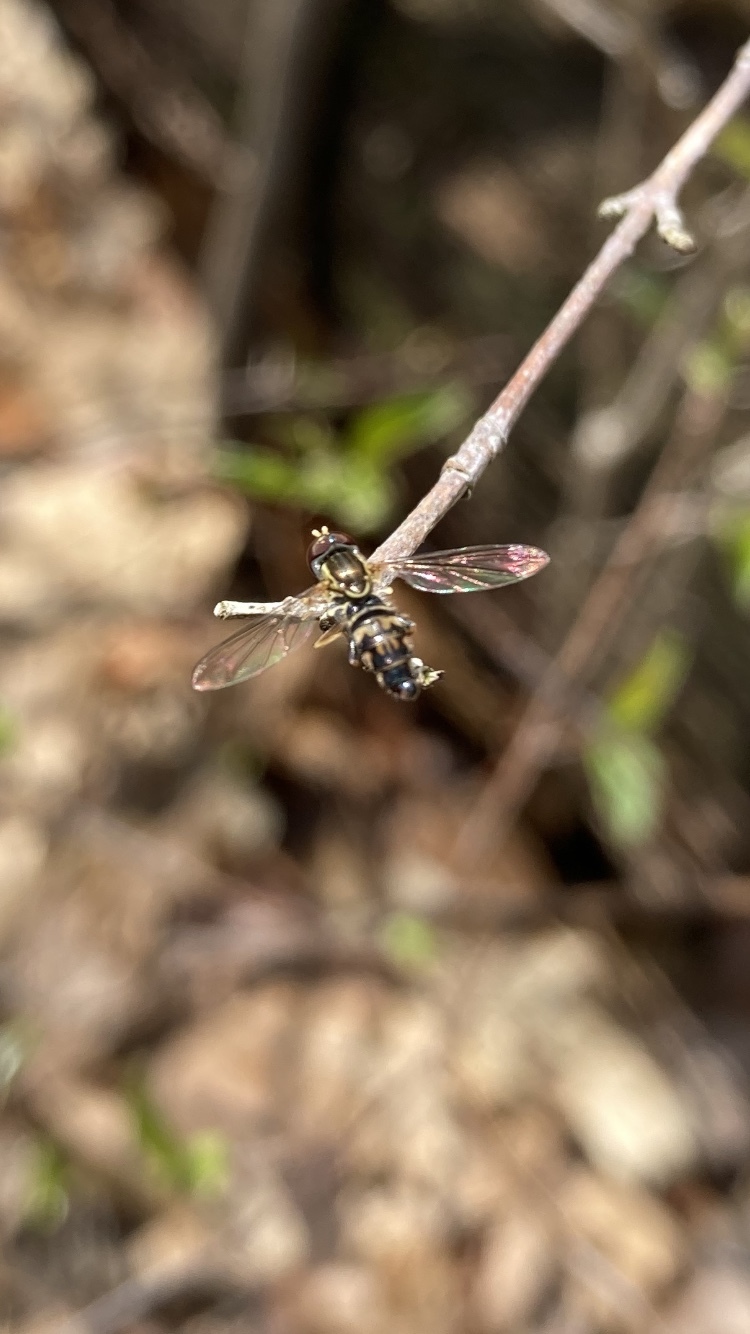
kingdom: Animalia
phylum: Arthropoda
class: Insecta
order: Diptera
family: Syrphidae
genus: Toxomerus
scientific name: Toxomerus geminatus
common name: Eastern calligrapher
